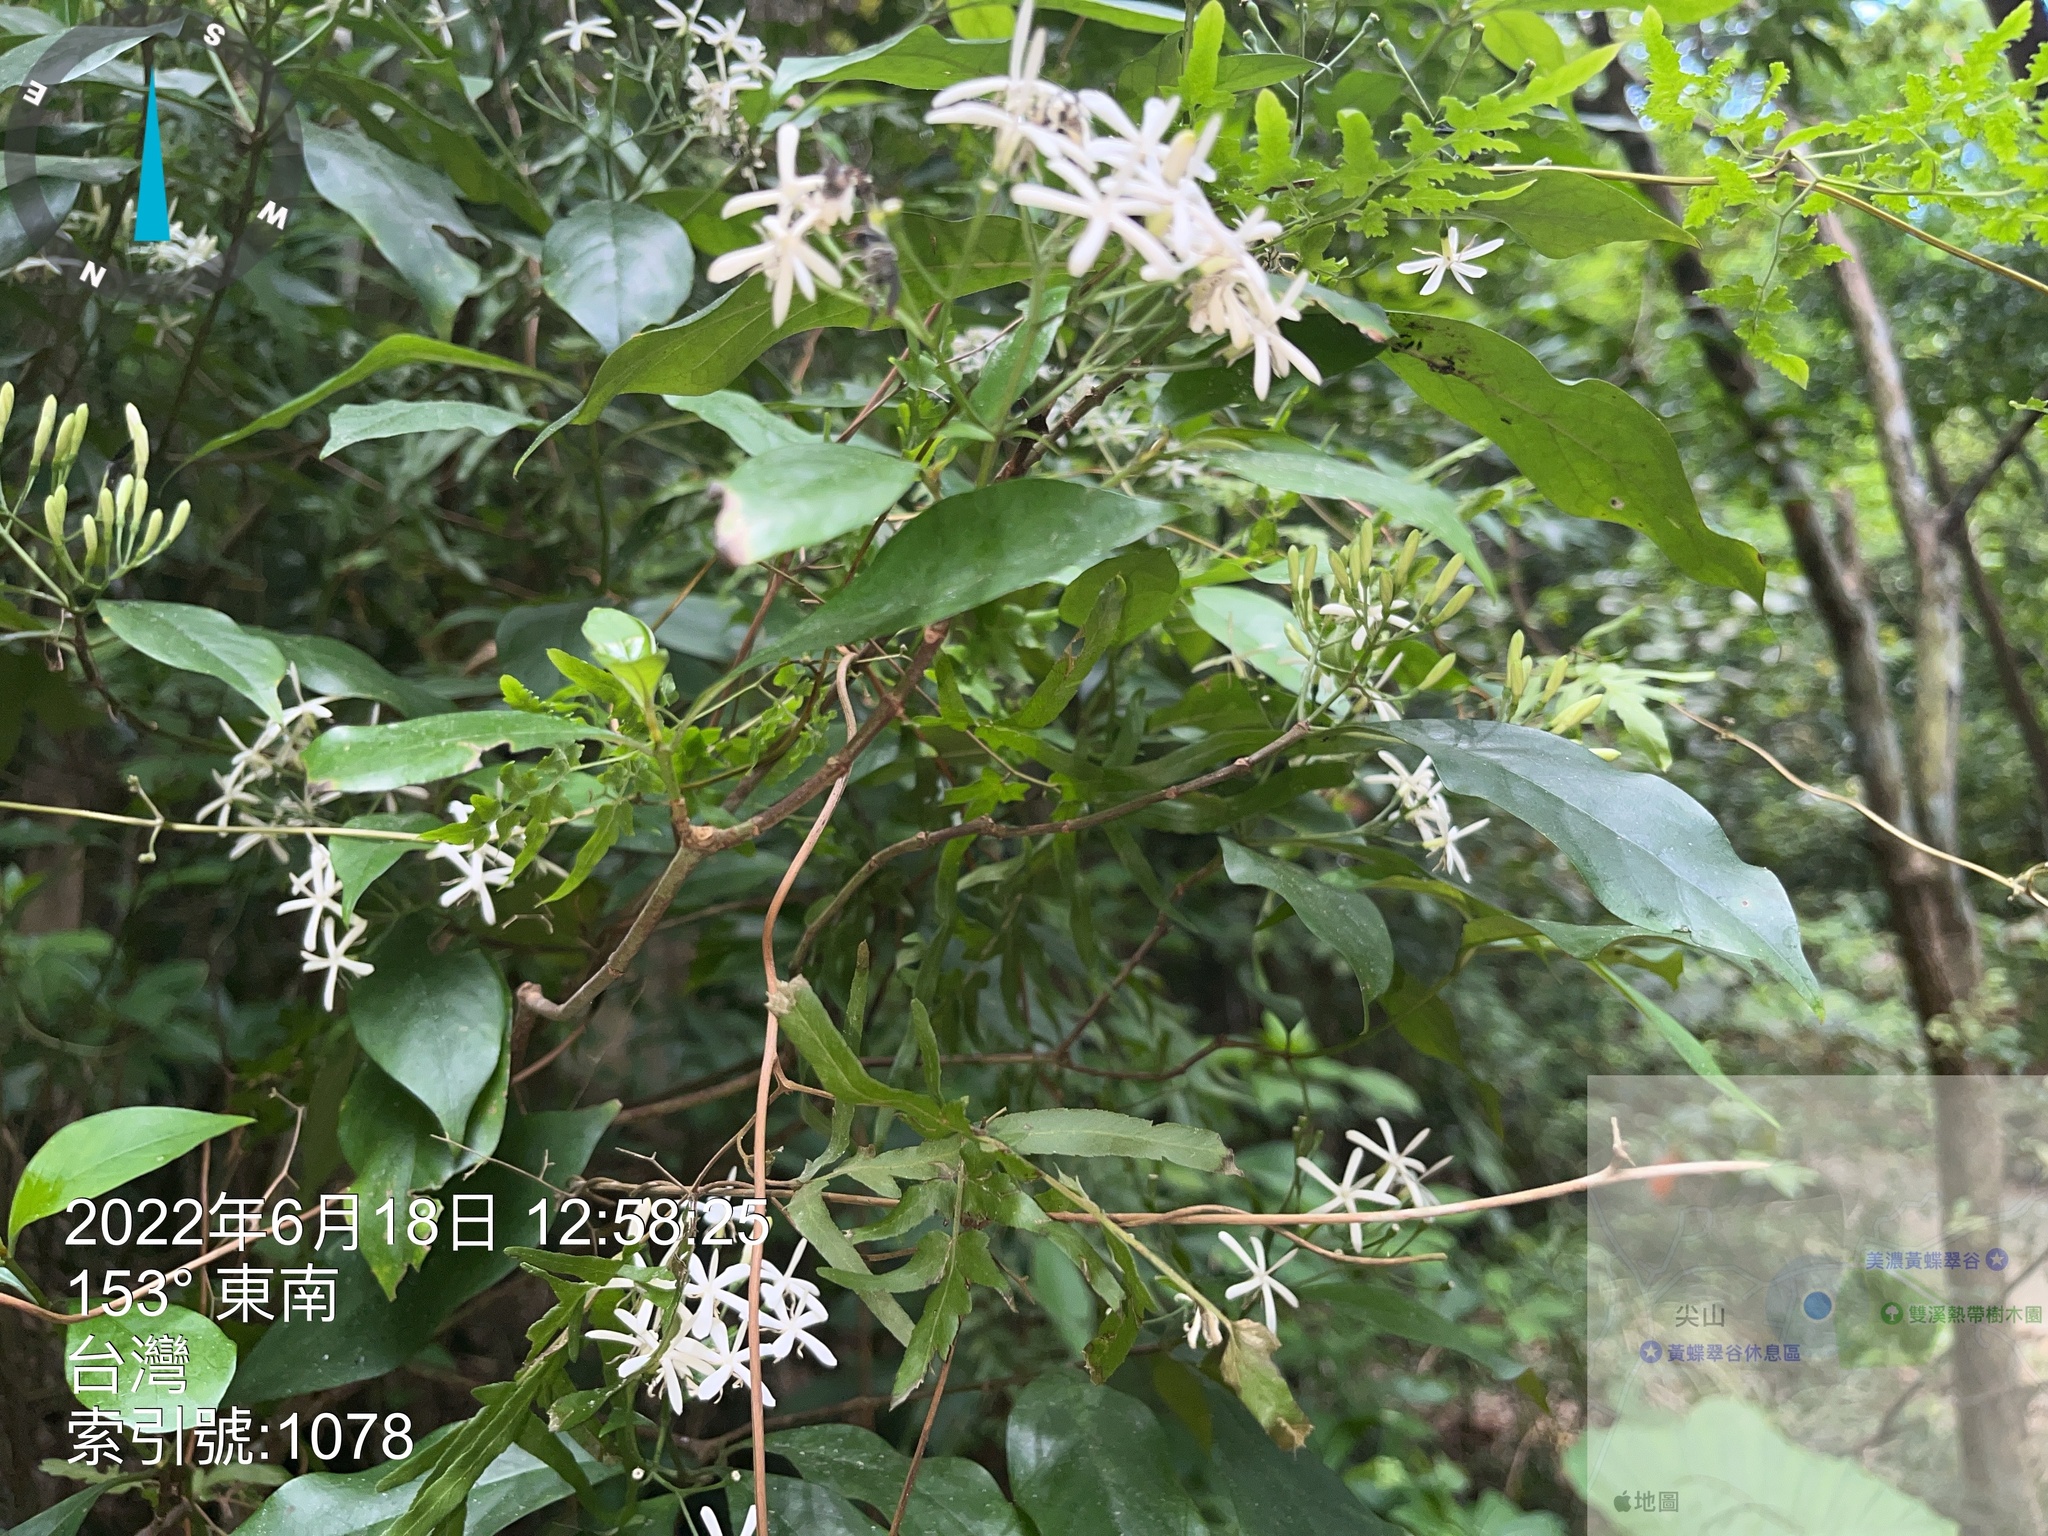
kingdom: Plantae
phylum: Tracheophyta
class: Magnoliopsida
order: Gentianales
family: Rubiaceae
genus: Tarenna
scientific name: Tarenna gracilipes
